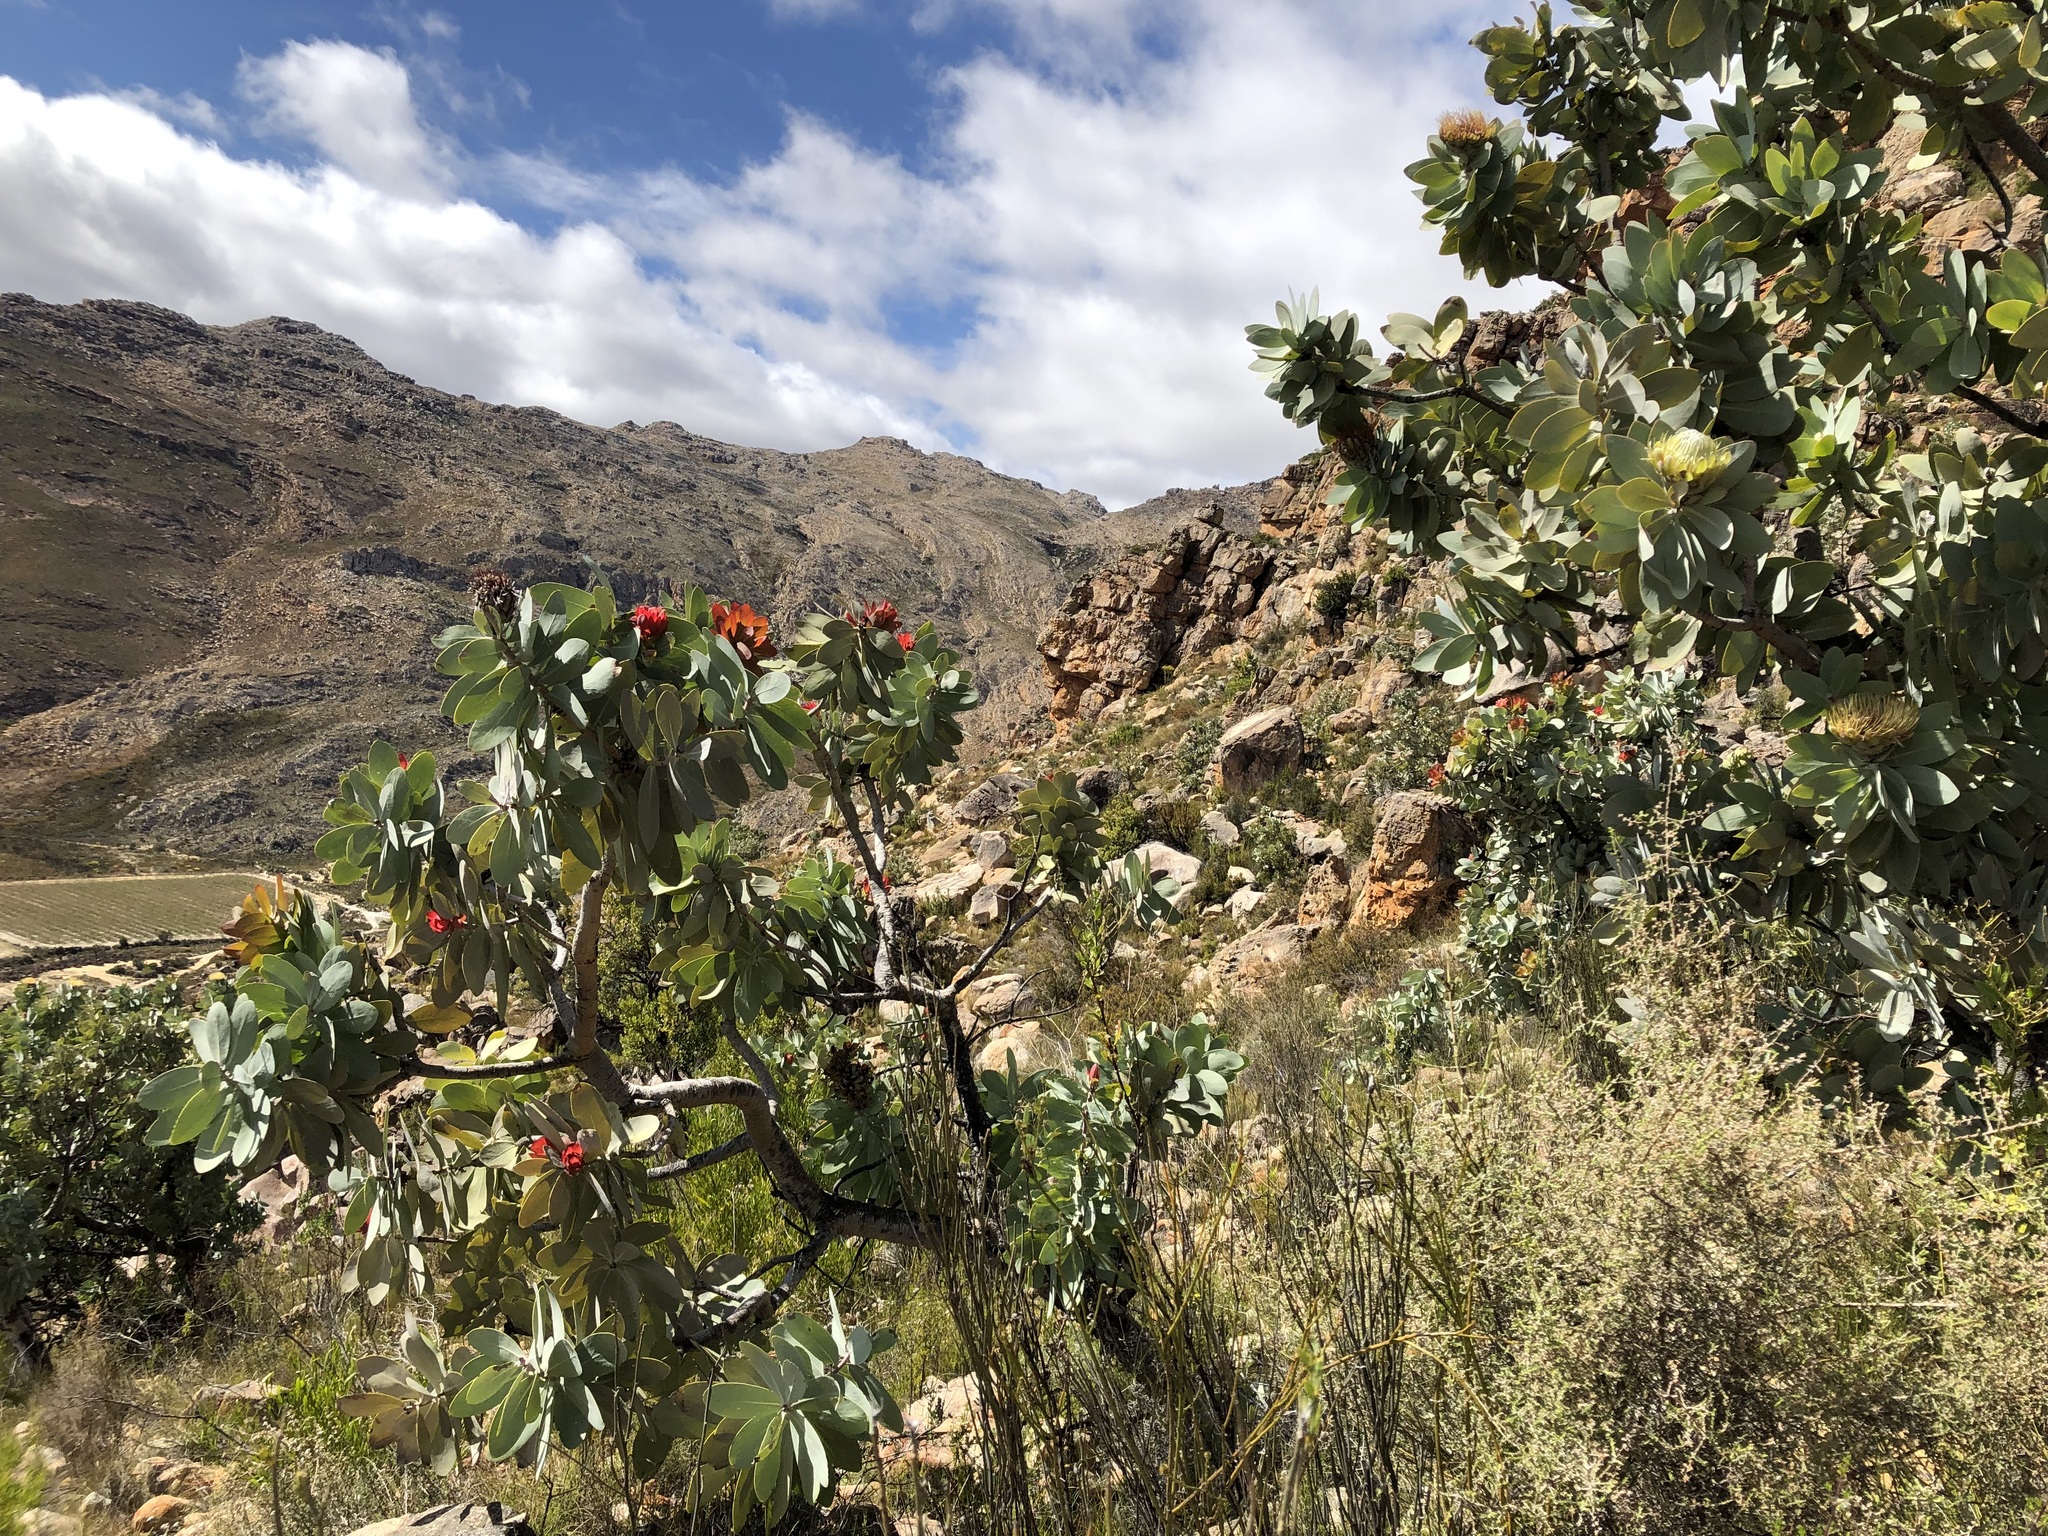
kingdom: Plantae
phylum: Tracheophyta
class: Magnoliopsida
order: Proteales
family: Proteaceae
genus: Protea
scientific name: Protea nitida
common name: Tree protea
